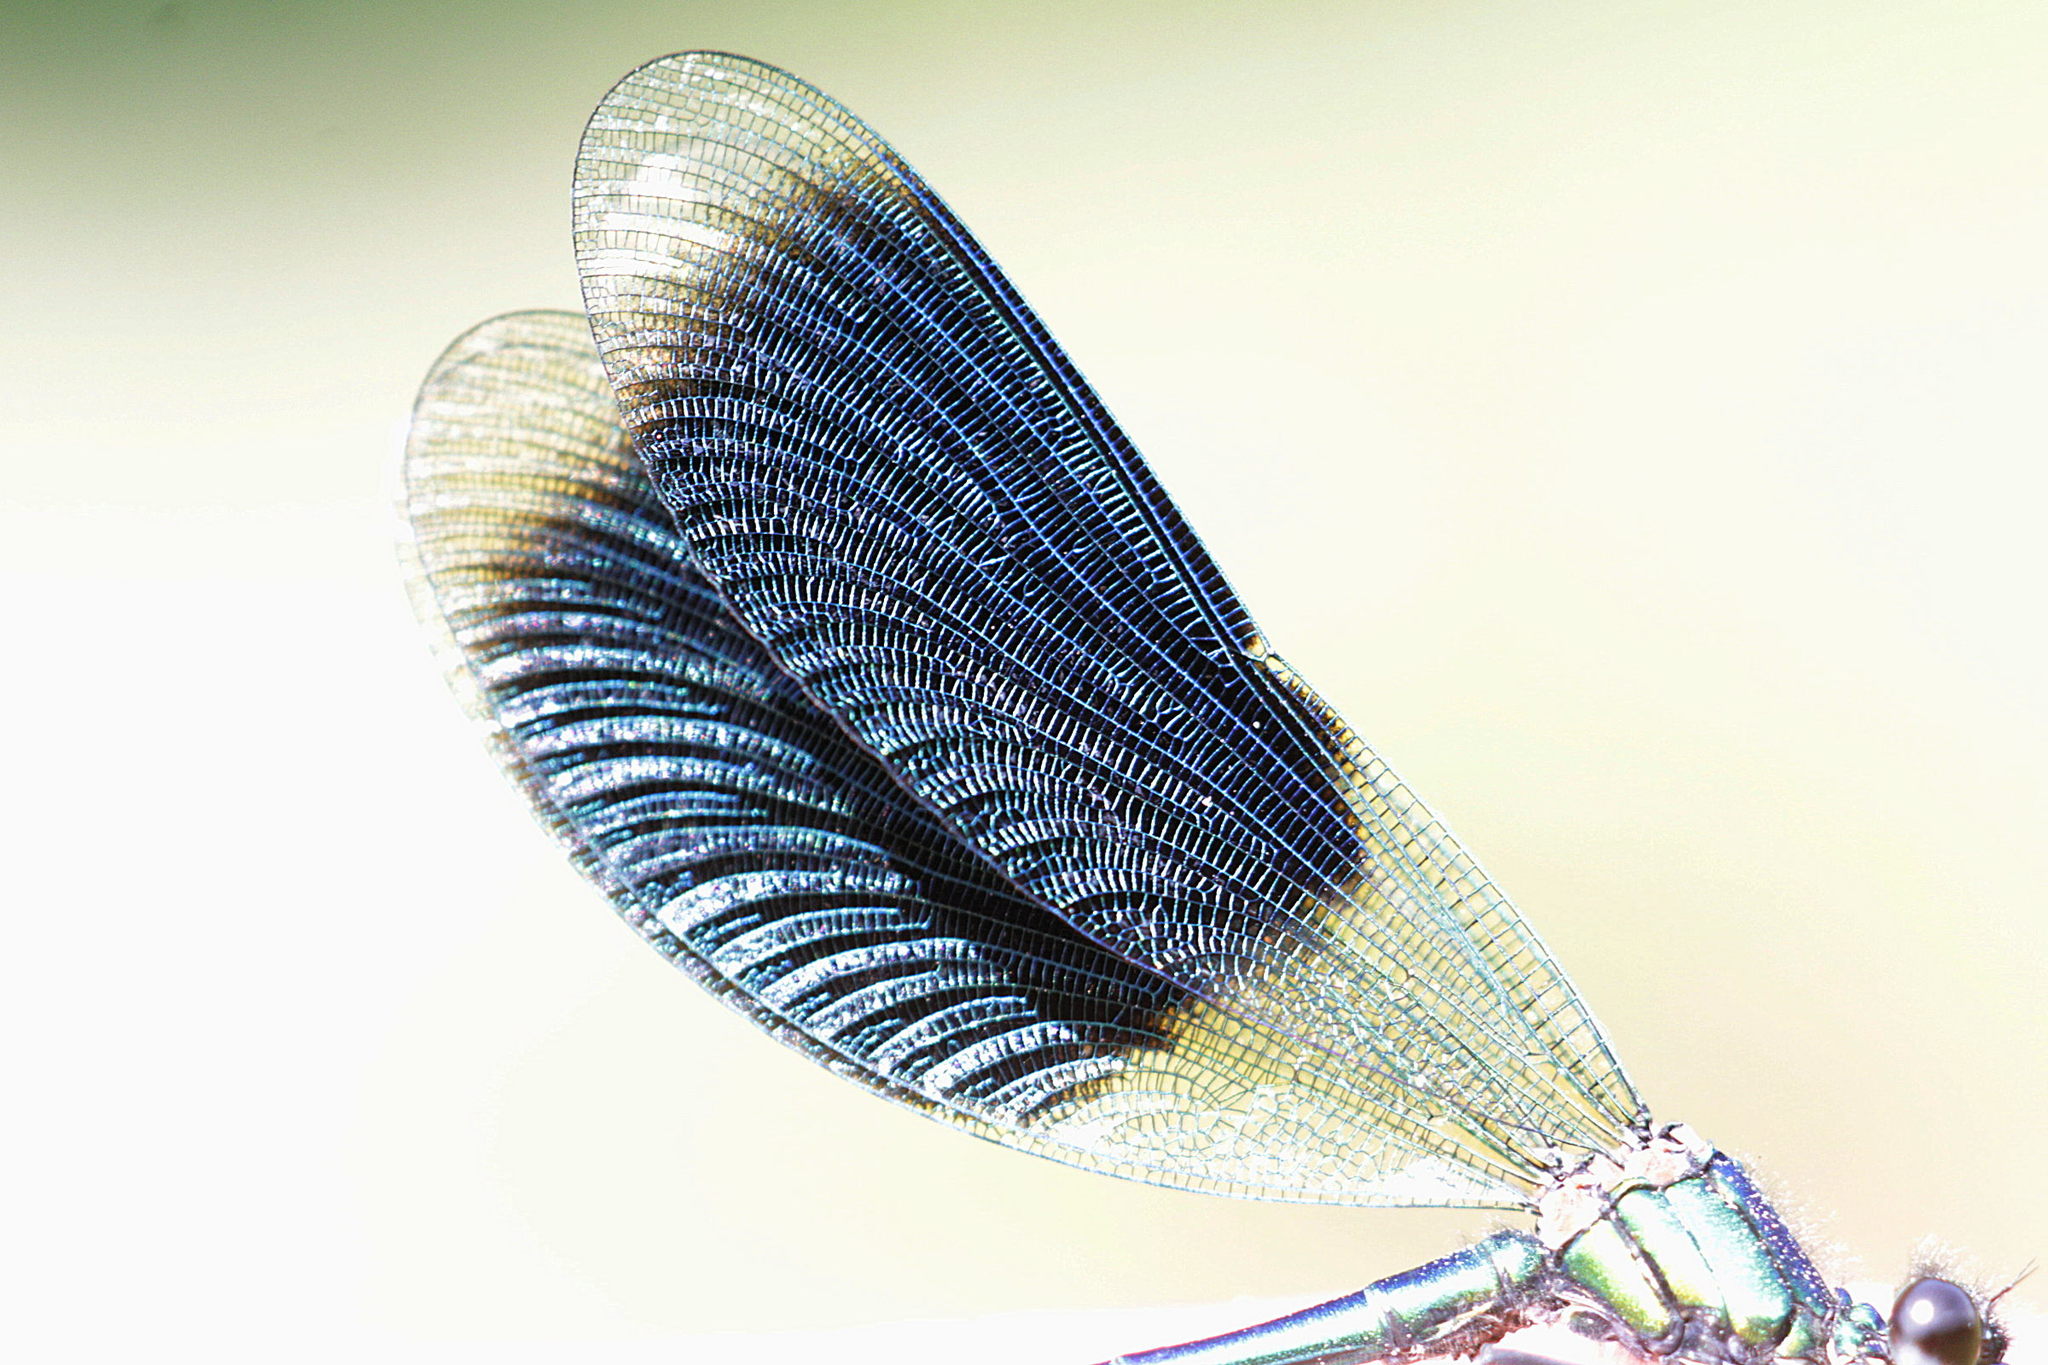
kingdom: Animalia
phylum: Arthropoda
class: Insecta
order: Odonata
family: Calopterygidae
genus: Calopteryx
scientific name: Calopteryx splendens
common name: Banded demoiselle
